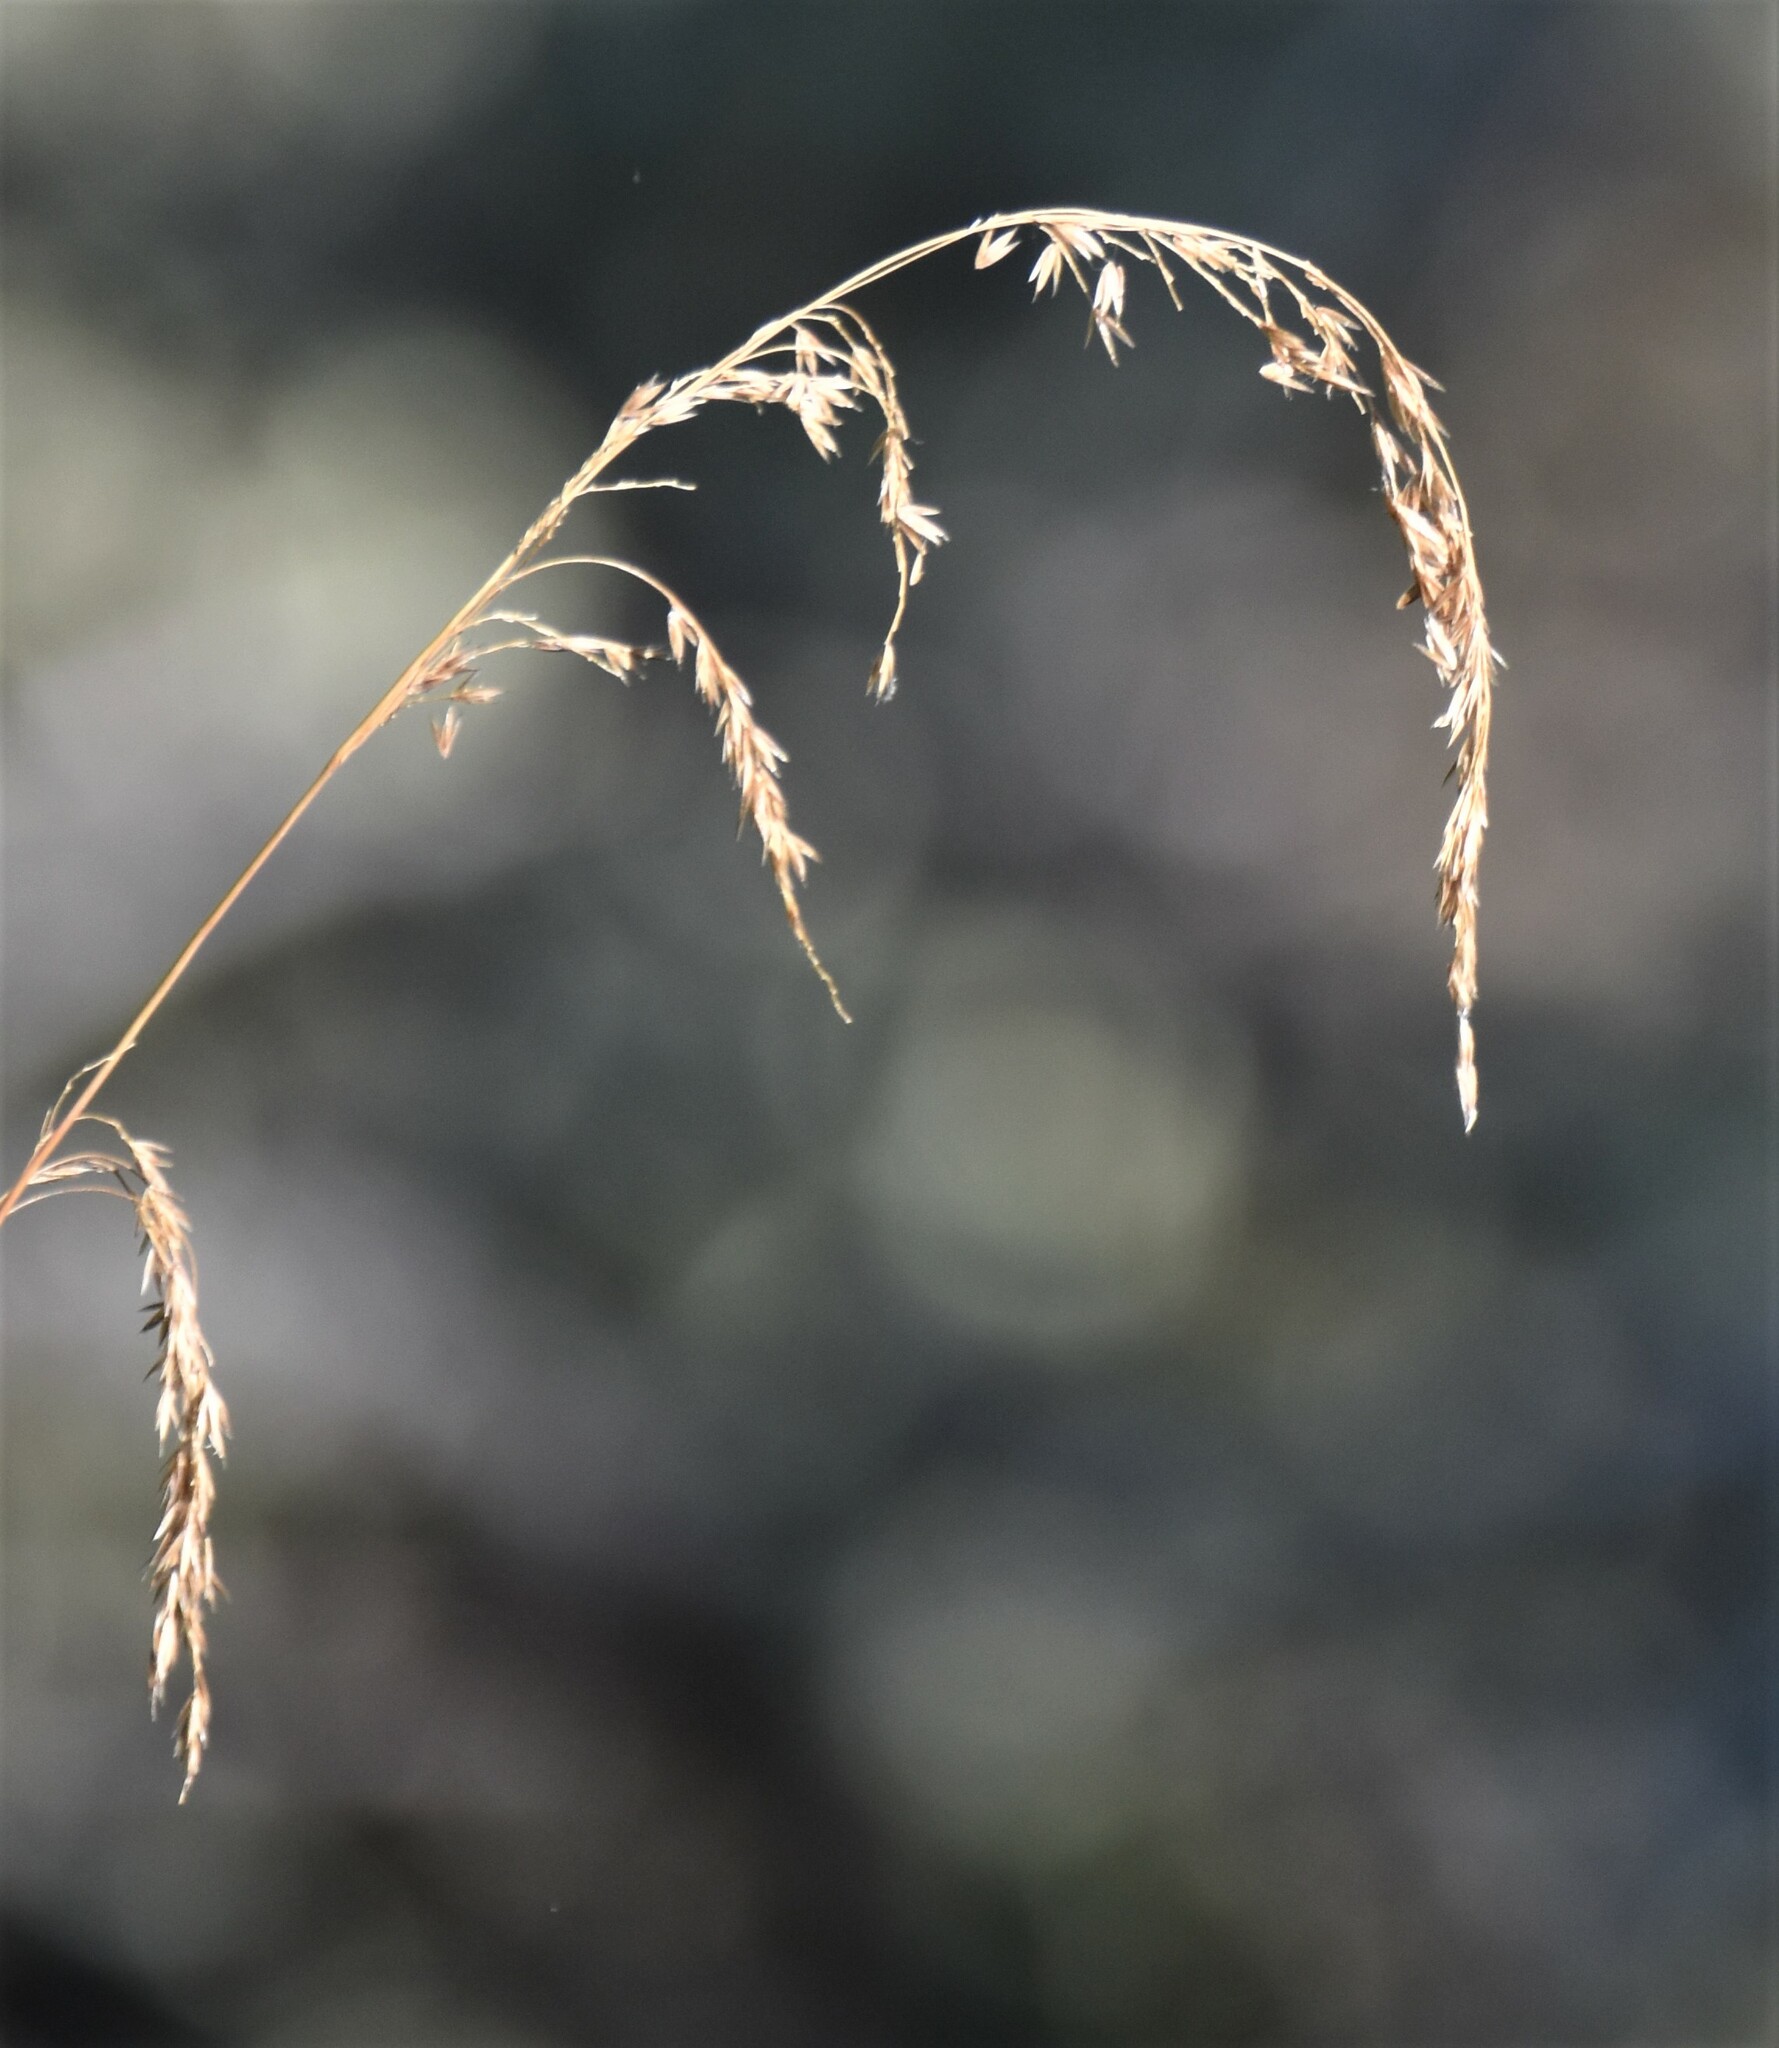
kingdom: Plantae
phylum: Tracheophyta
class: Liliopsida
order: Poales
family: Poaceae
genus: Cinna
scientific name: Cinna latifolia
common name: Drooping woodreed
